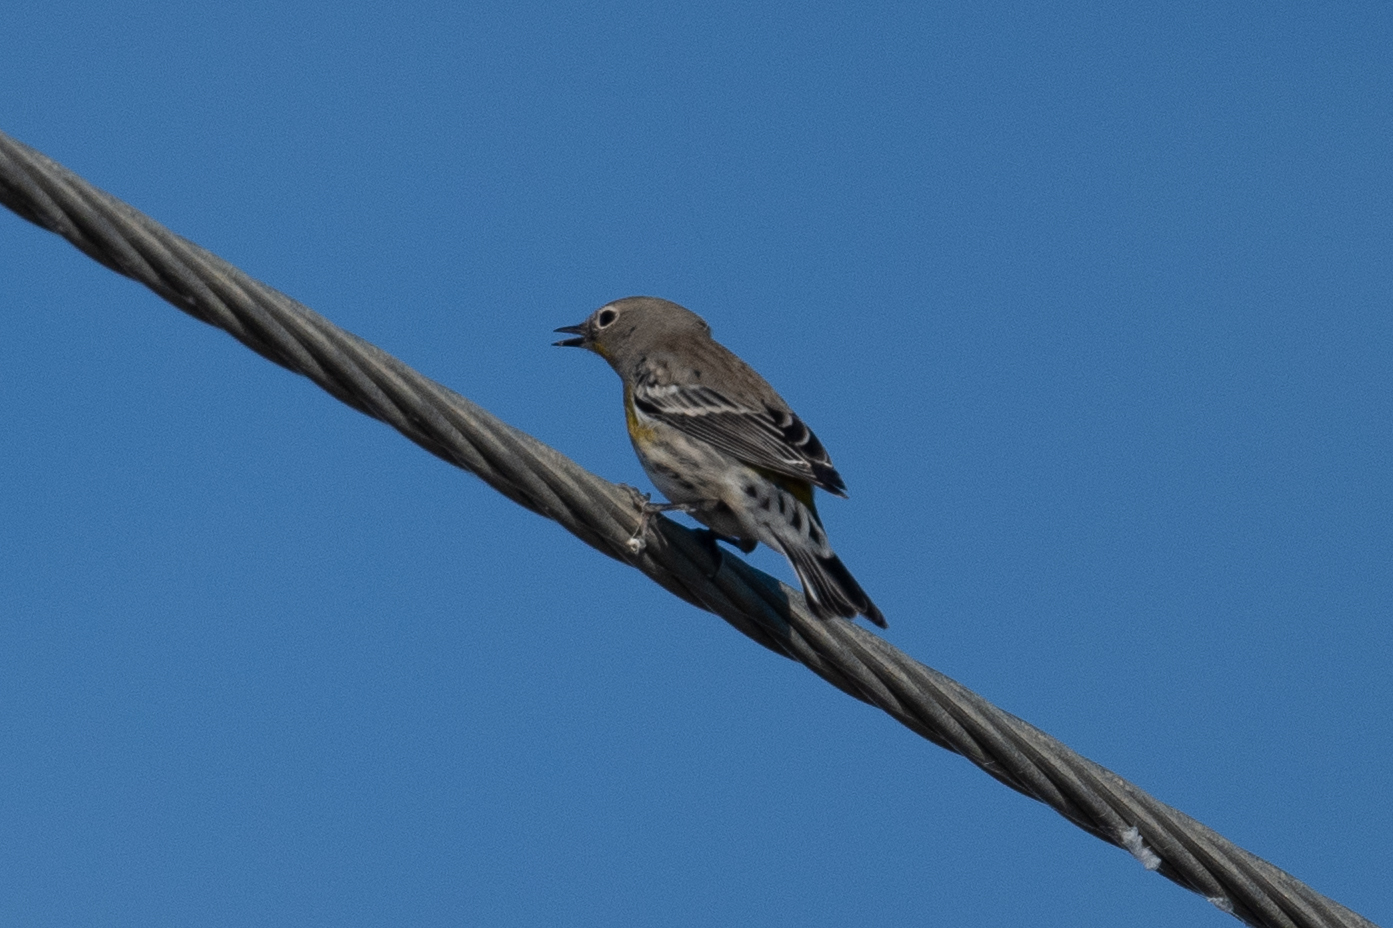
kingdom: Animalia
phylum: Chordata
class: Aves
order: Passeriformes
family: Parulidae
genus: Setophaga
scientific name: Setophaga coronata
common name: Myrtle warbler
